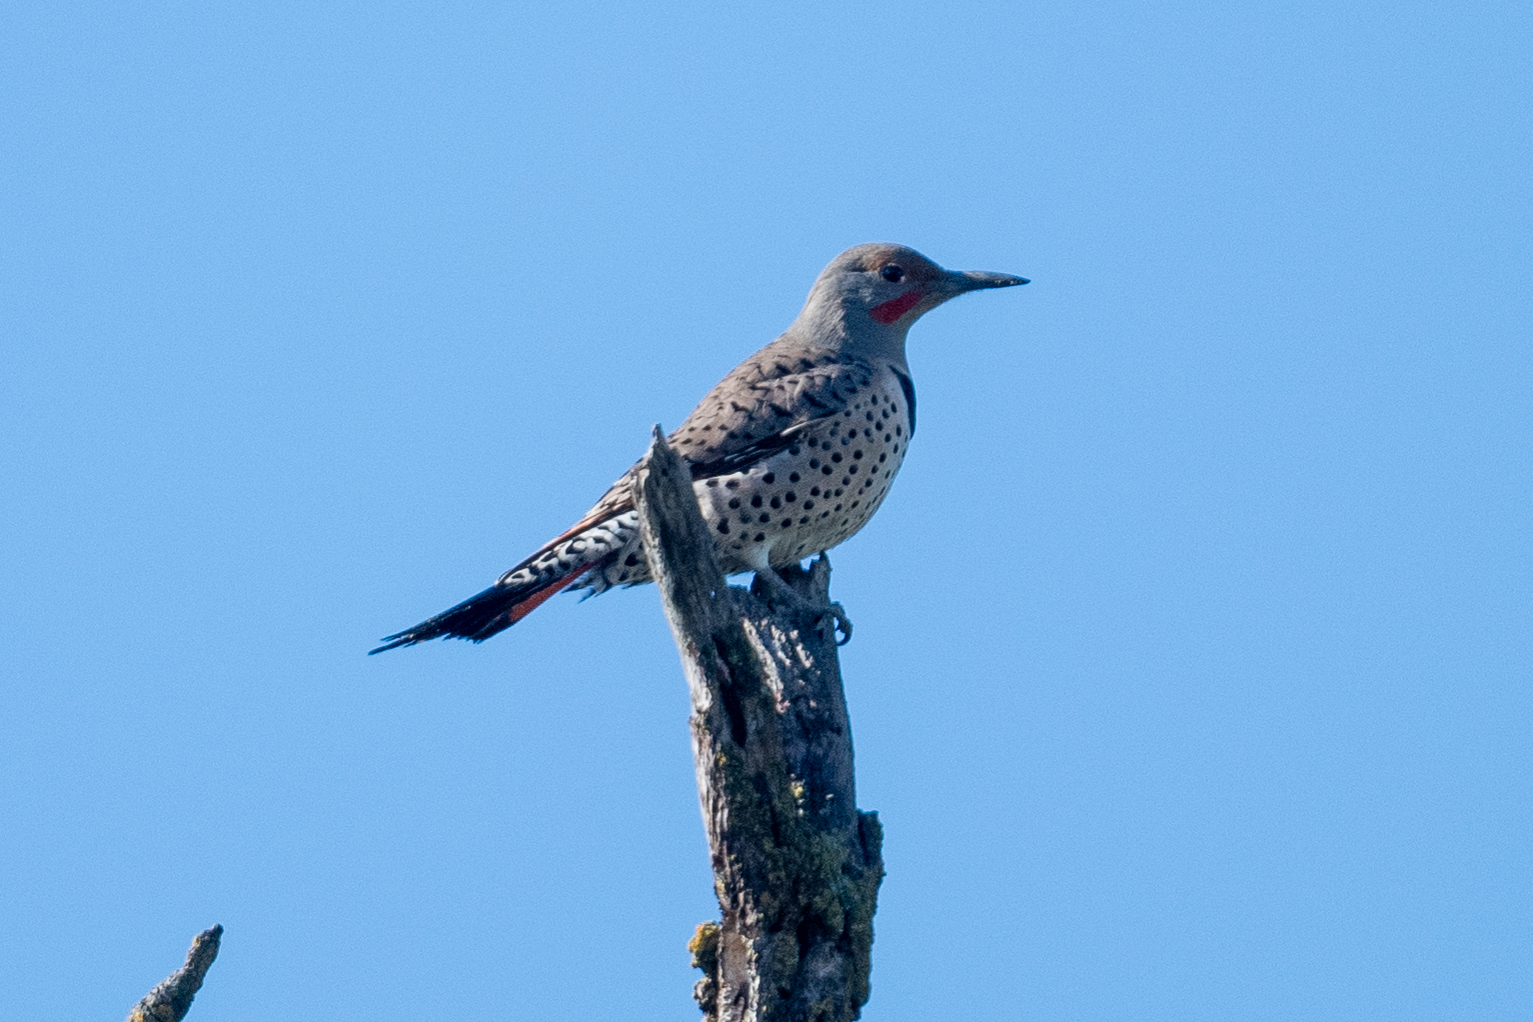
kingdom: Animalia
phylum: Chordata
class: Aves
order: Piciformes
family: Picidae
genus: Colaptes
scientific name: Colaptes auratus
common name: Northern flicker
